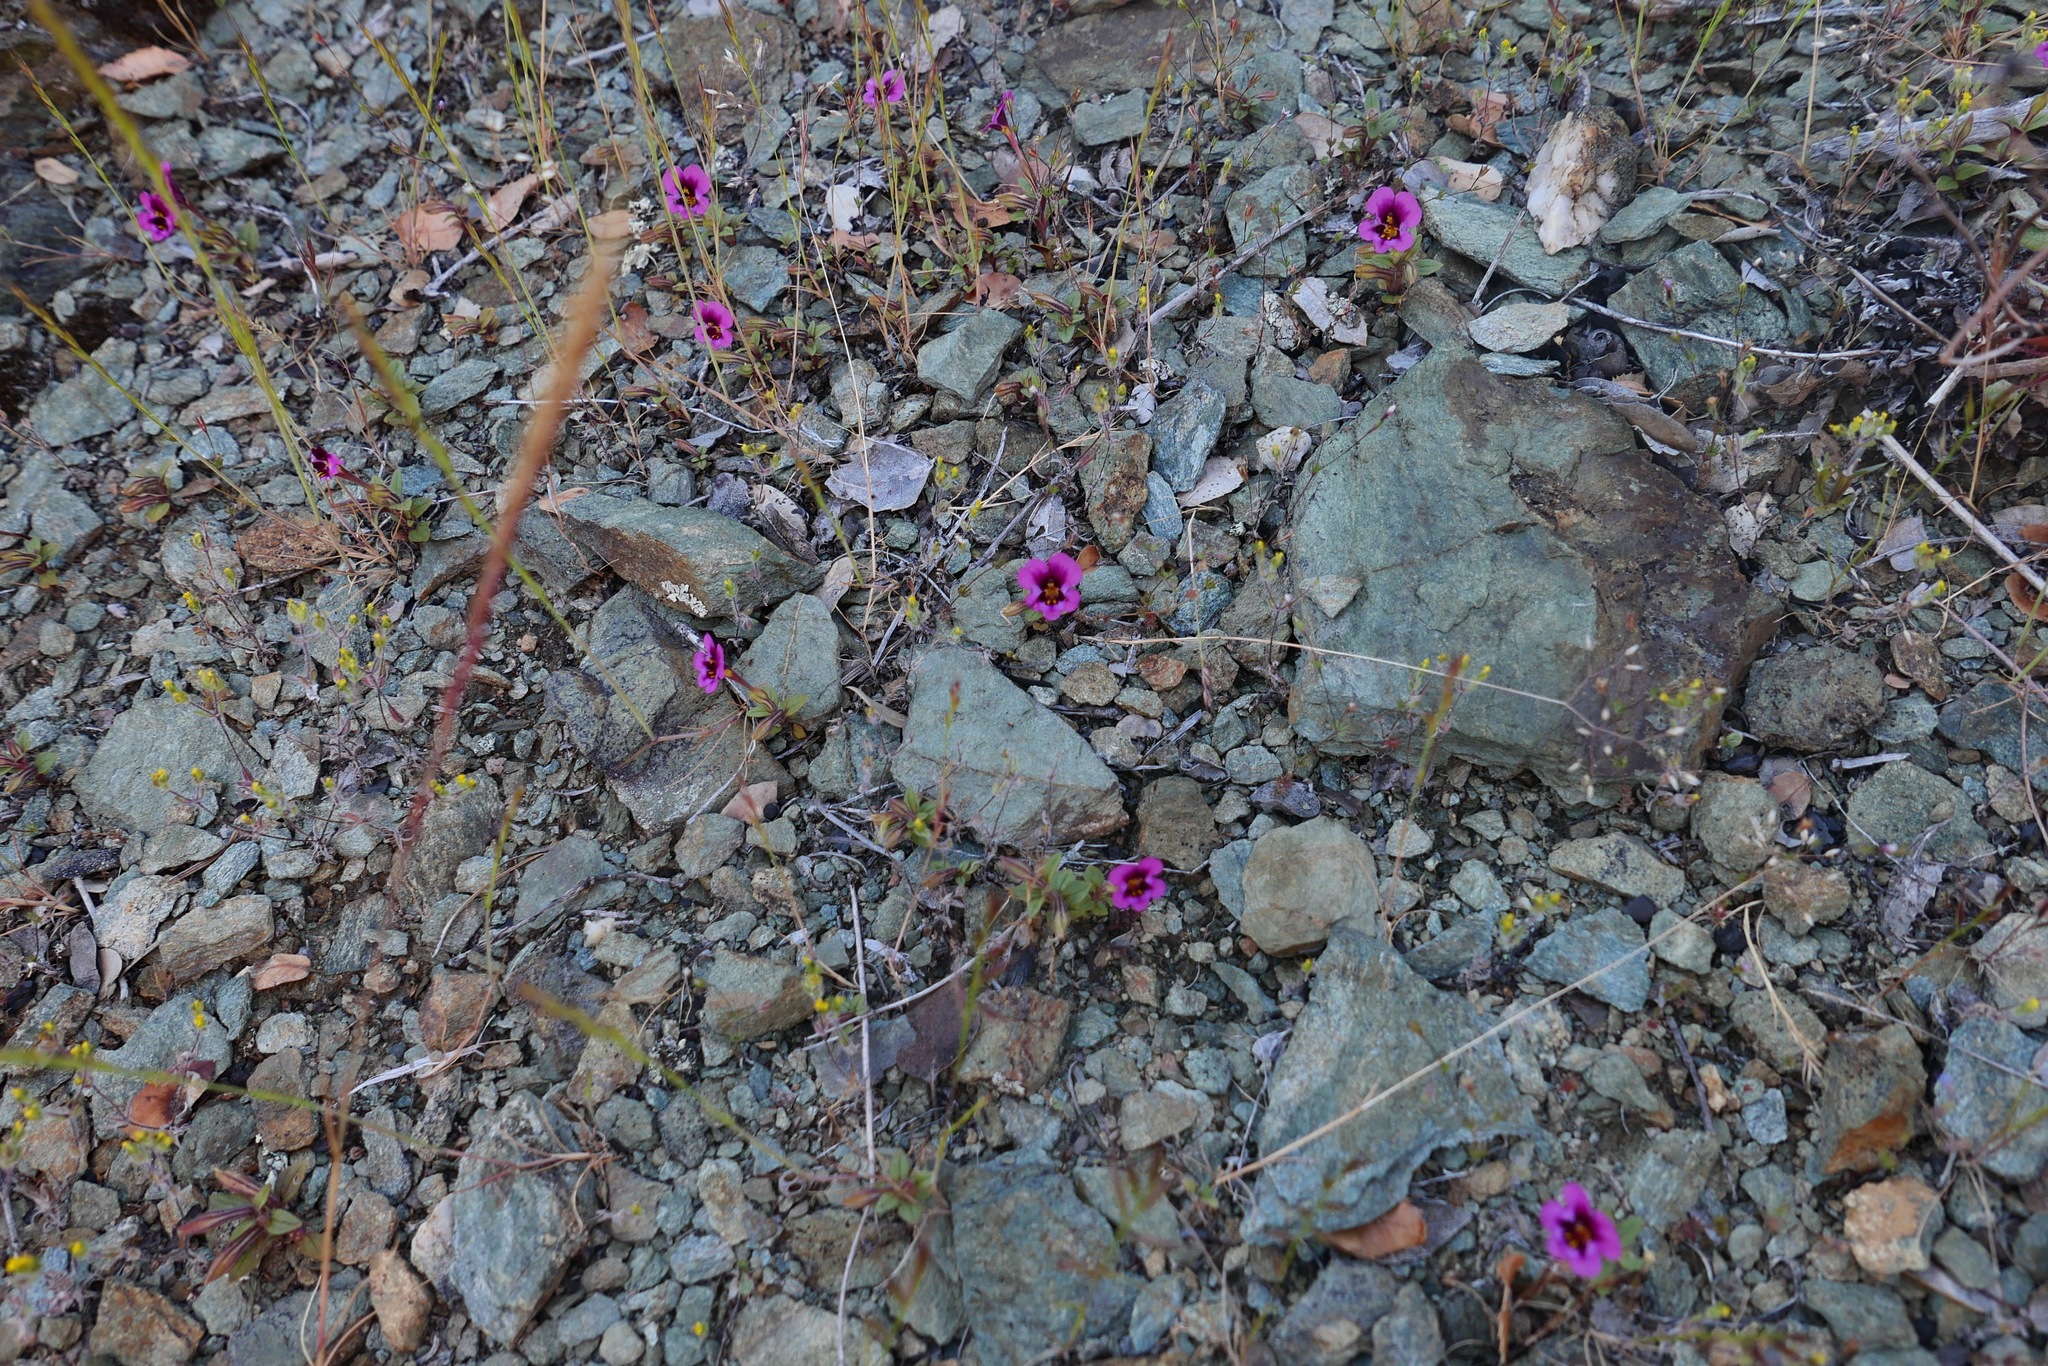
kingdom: Plantae
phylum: Tracheophyta
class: Magnoliopsida
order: Lamiales
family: Phrymaceae
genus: Diplacus
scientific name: Diplacus kelloggii
